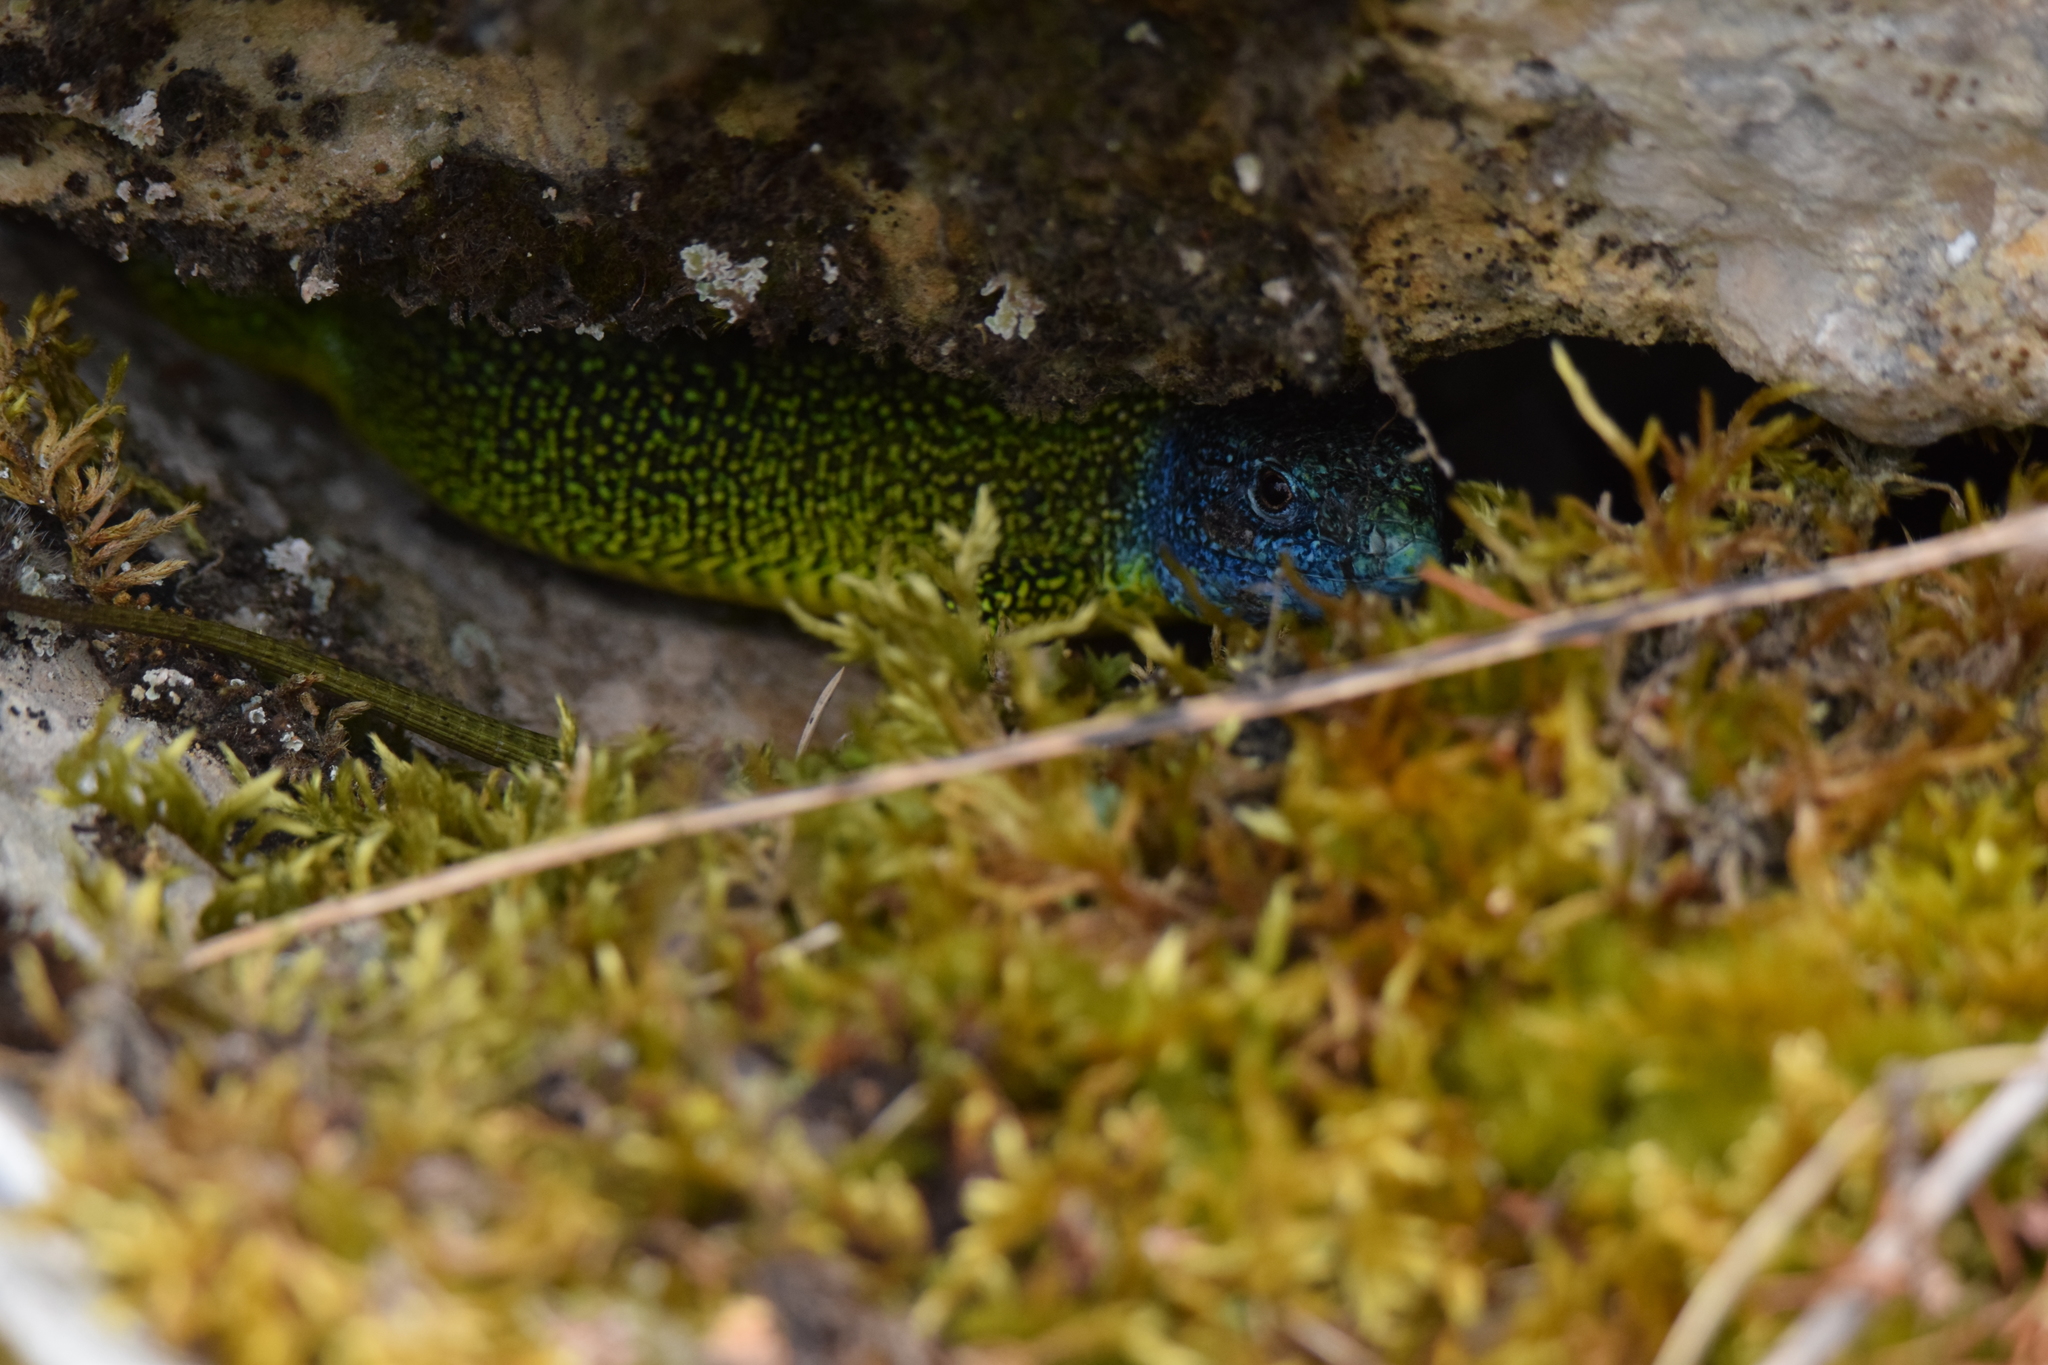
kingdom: Animalia
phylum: Chordata
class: Squamata
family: Lacertidae
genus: Lacerta
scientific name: Lacerta bilineata
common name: Western green lizard
